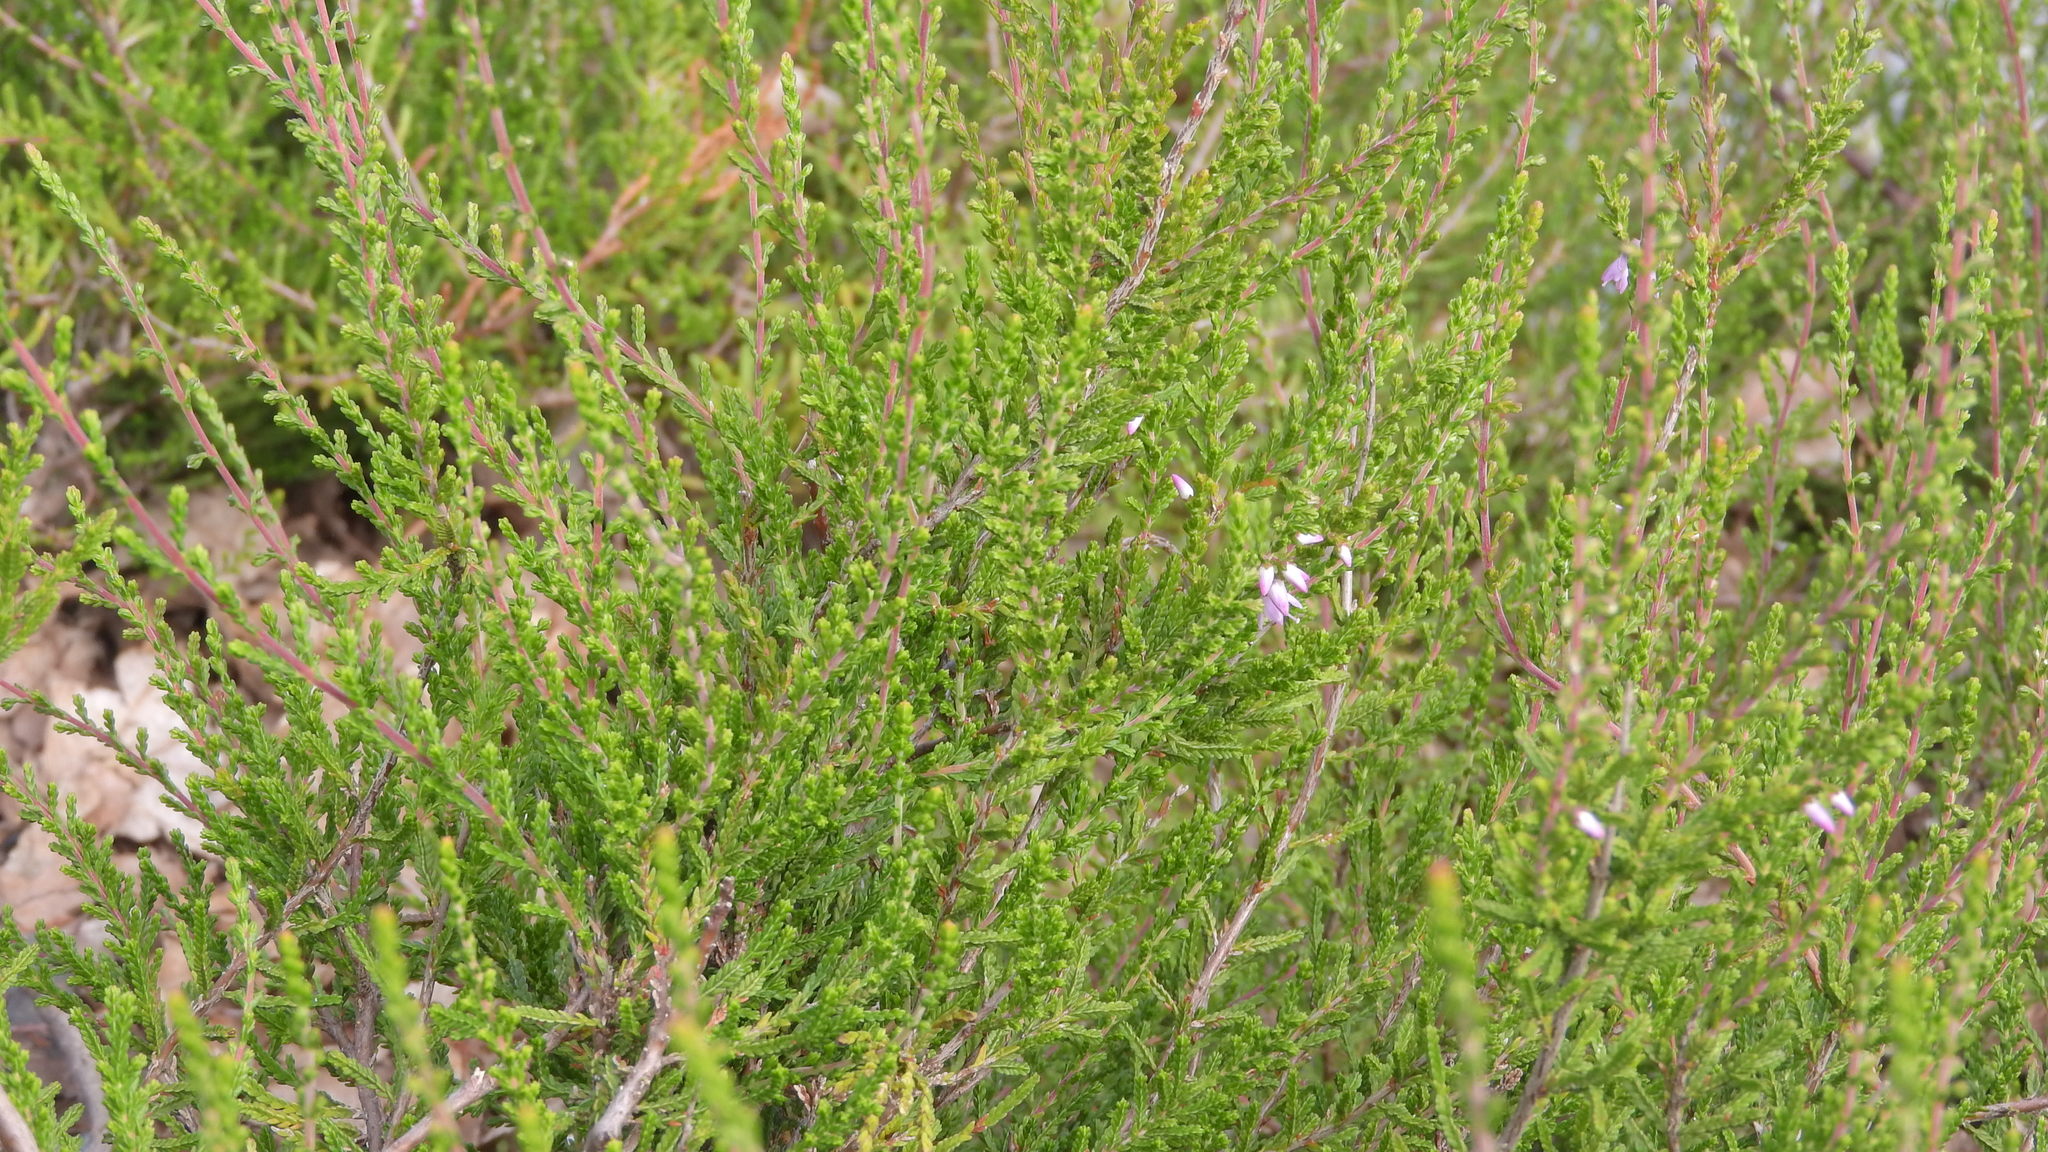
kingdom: Plantae
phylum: Tracheophyta
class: Magnoliopsida
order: Ericales
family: Ericaceae
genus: Calluna
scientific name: Calluna vulgaris
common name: Heather
